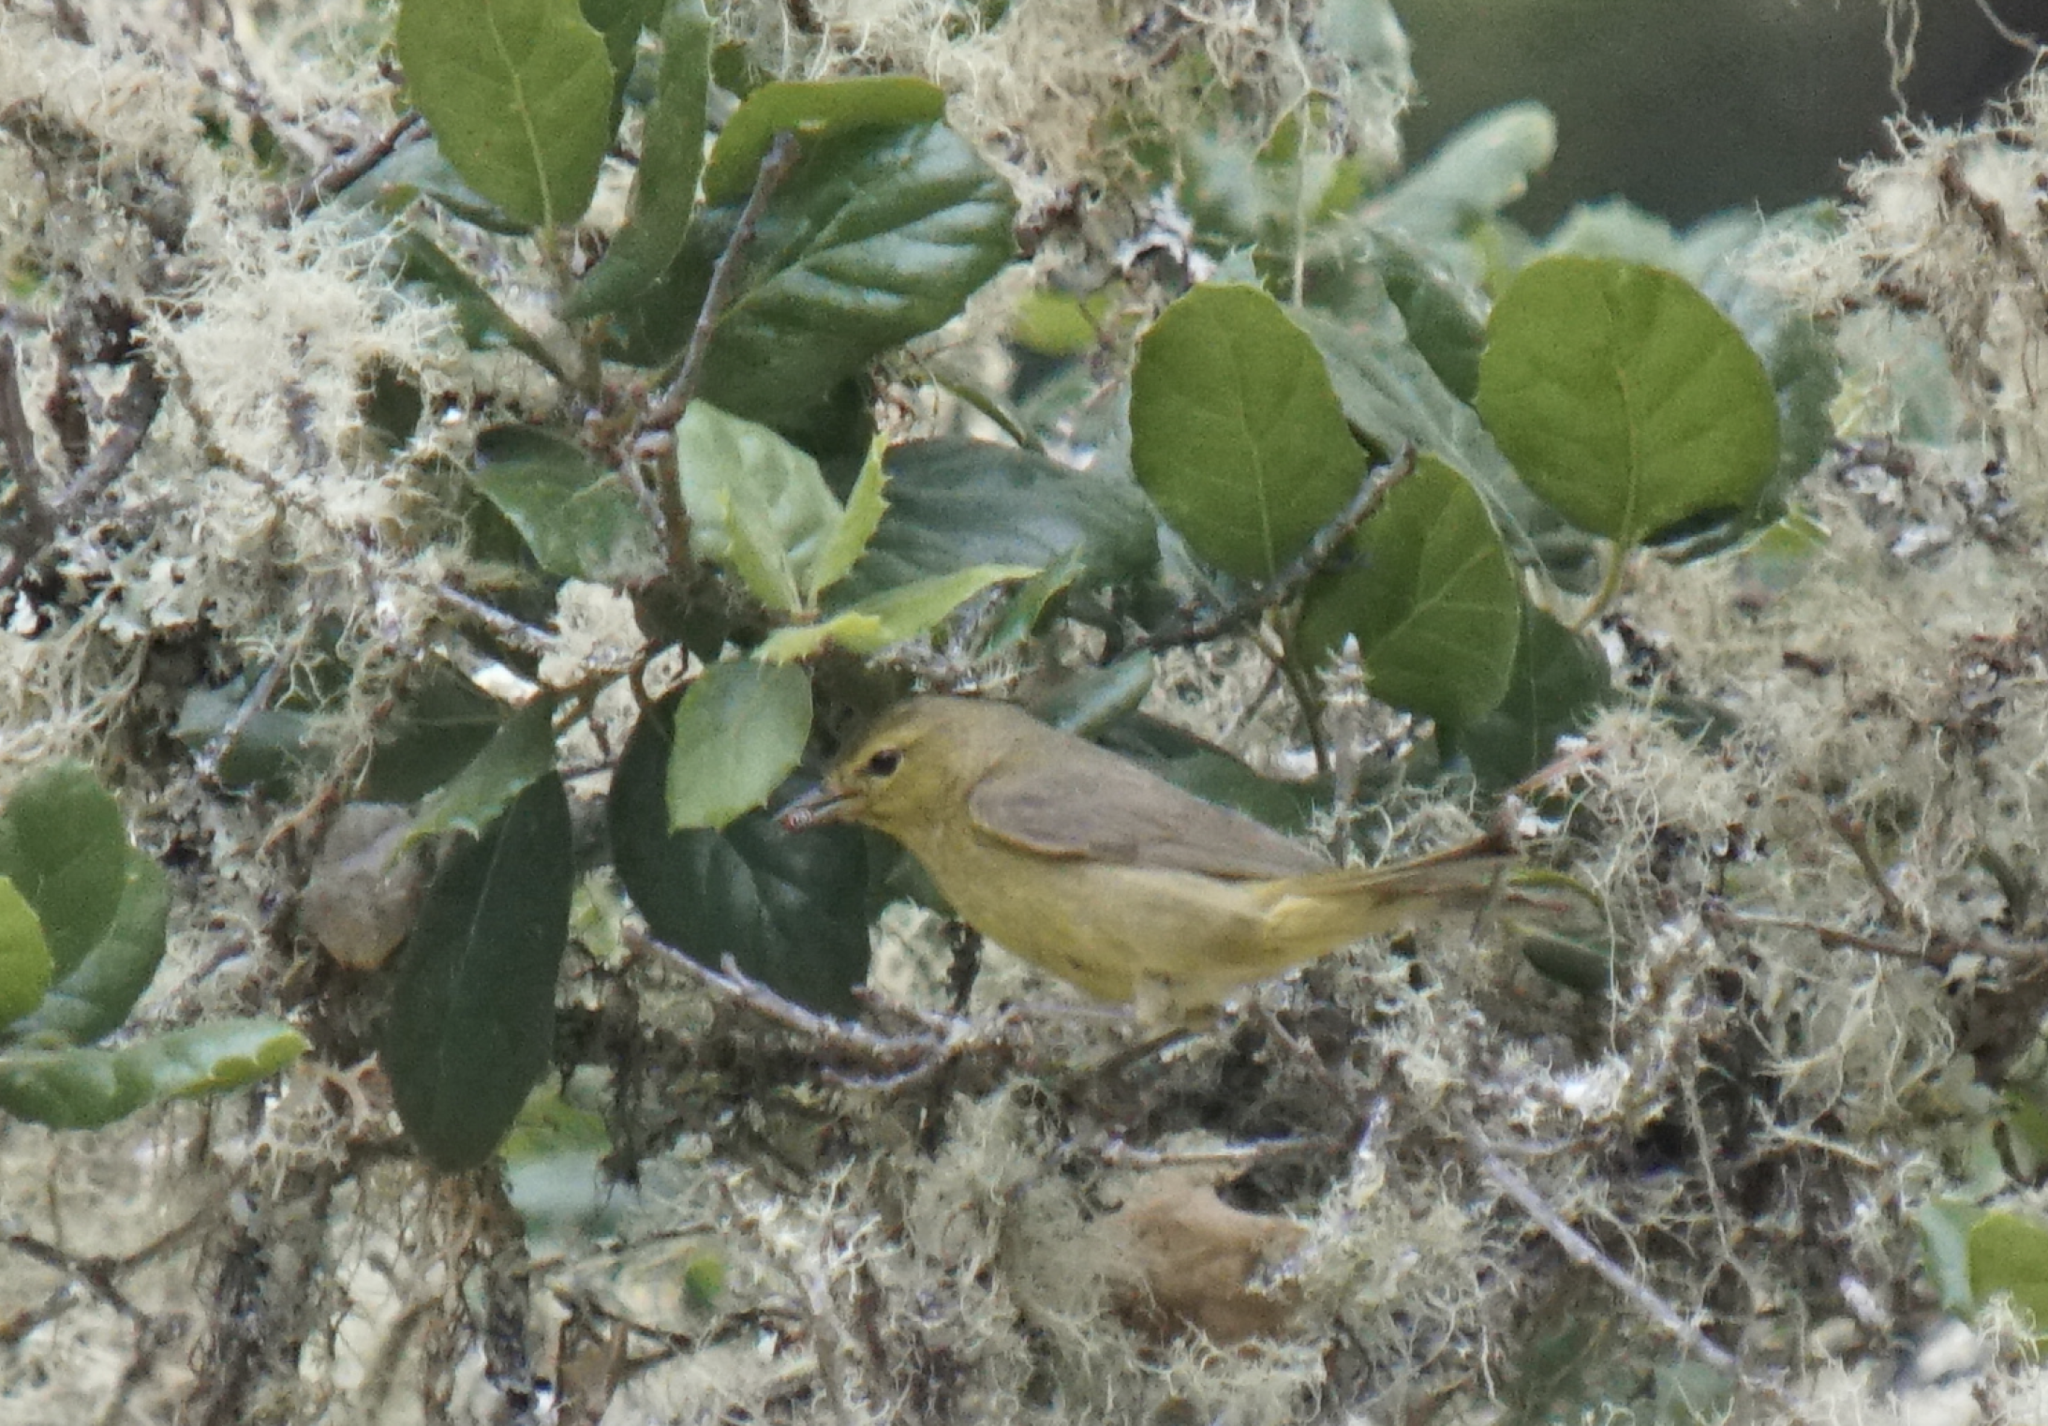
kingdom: Animalia
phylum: Chordata
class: Aves
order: Passeriformes
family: Parulidae
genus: Leiothlypis
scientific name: Leiothlypis celata
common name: Orange-crowned warbler
